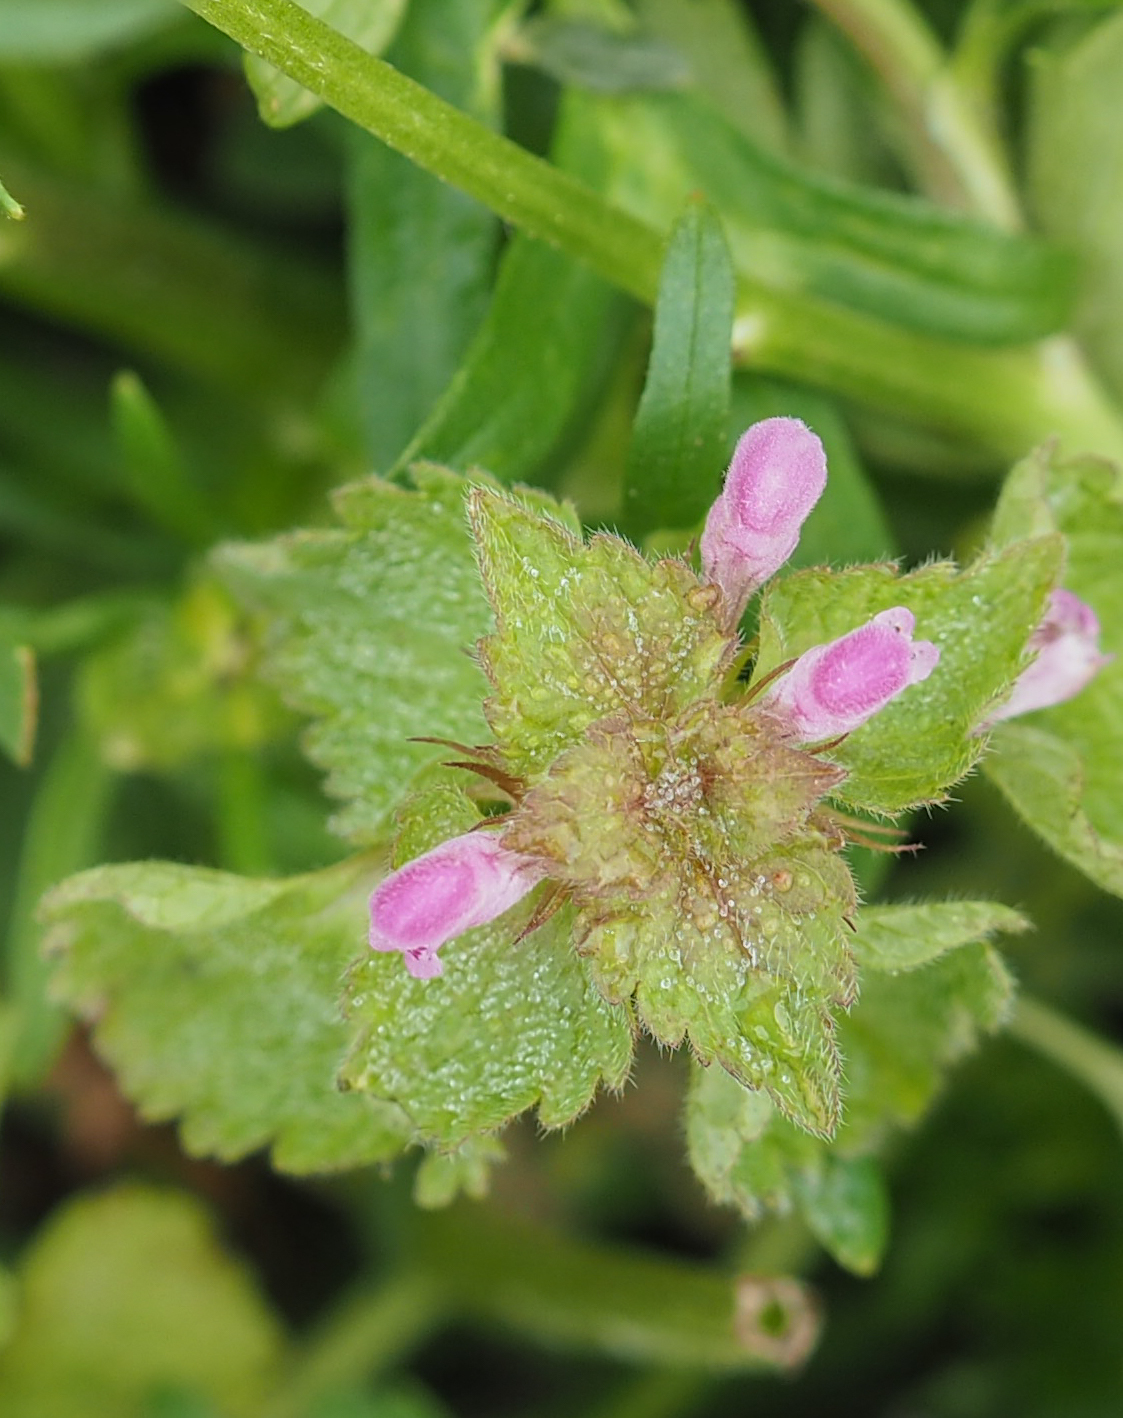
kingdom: Plantae
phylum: Tracheophyta
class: Magnoliopsida
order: Lamiales
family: Lamiaceae
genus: Lamium
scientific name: Lamium amplexicaule
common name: Henbit dead-nettle
